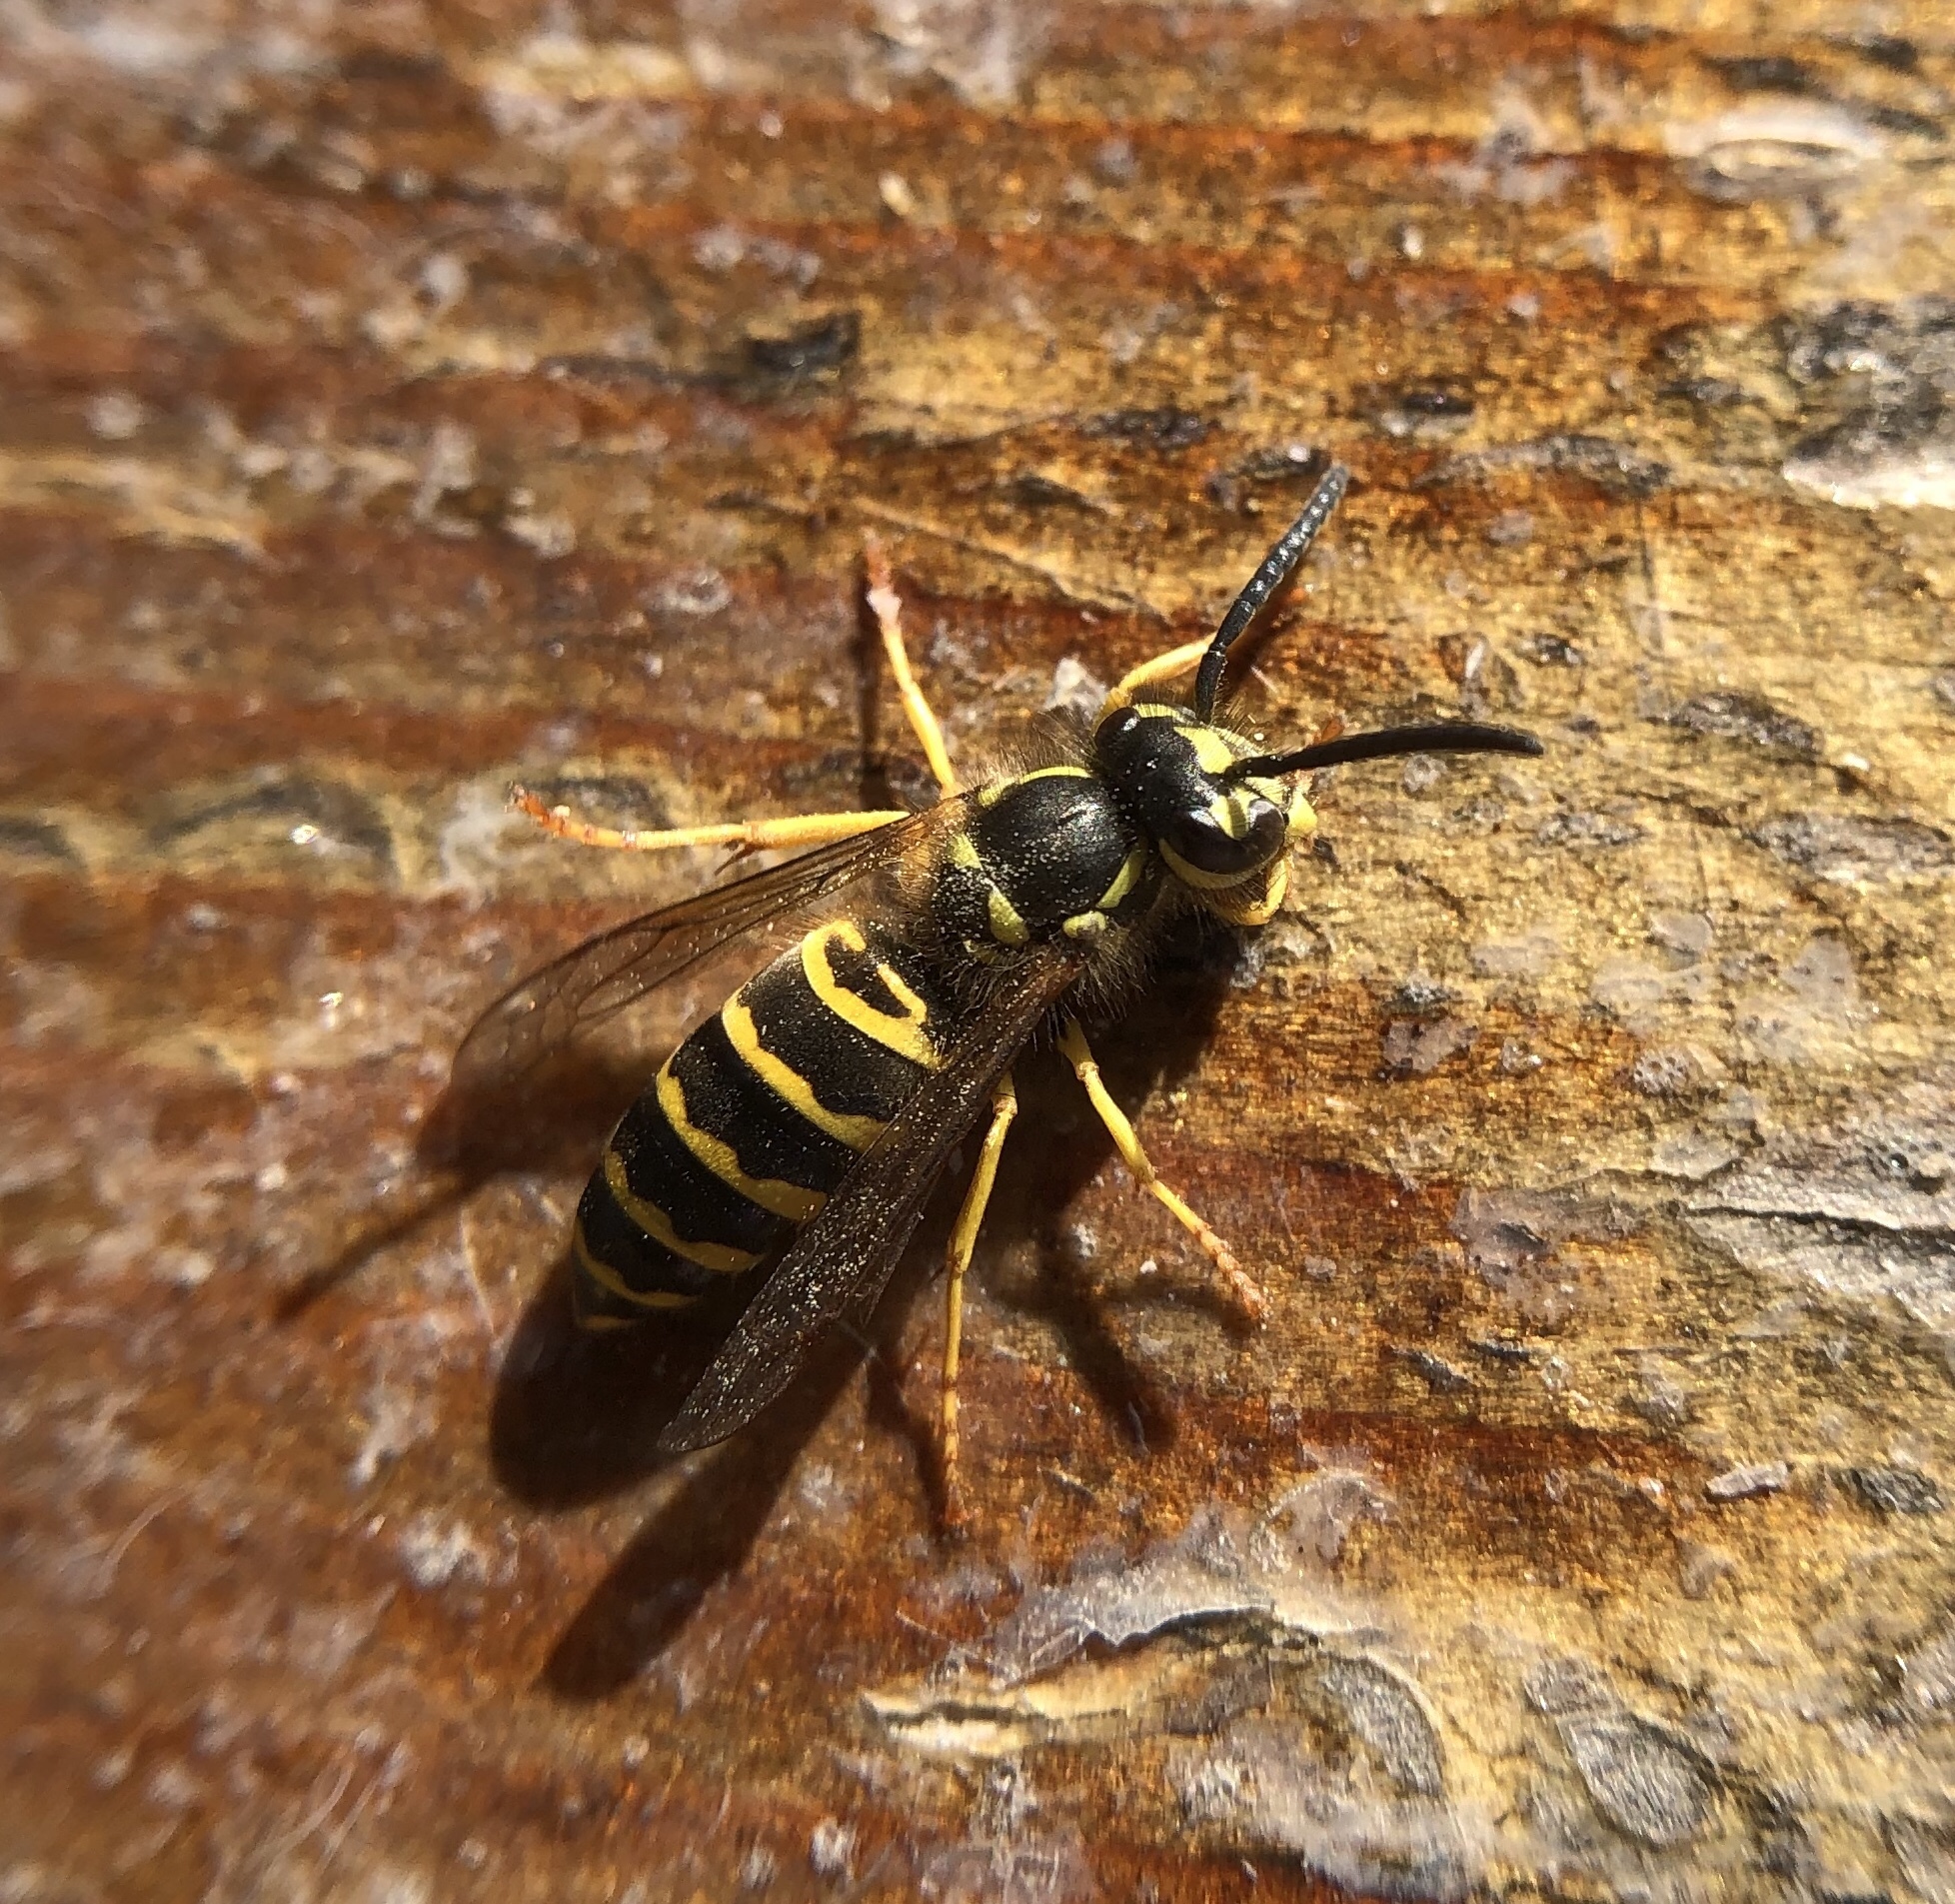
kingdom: Animalia
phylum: Arthropoda
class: Insecta
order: Hymenoptera
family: Vespidae
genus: Vespula
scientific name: Vespula maculifrons
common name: Eastern yellowjacket
